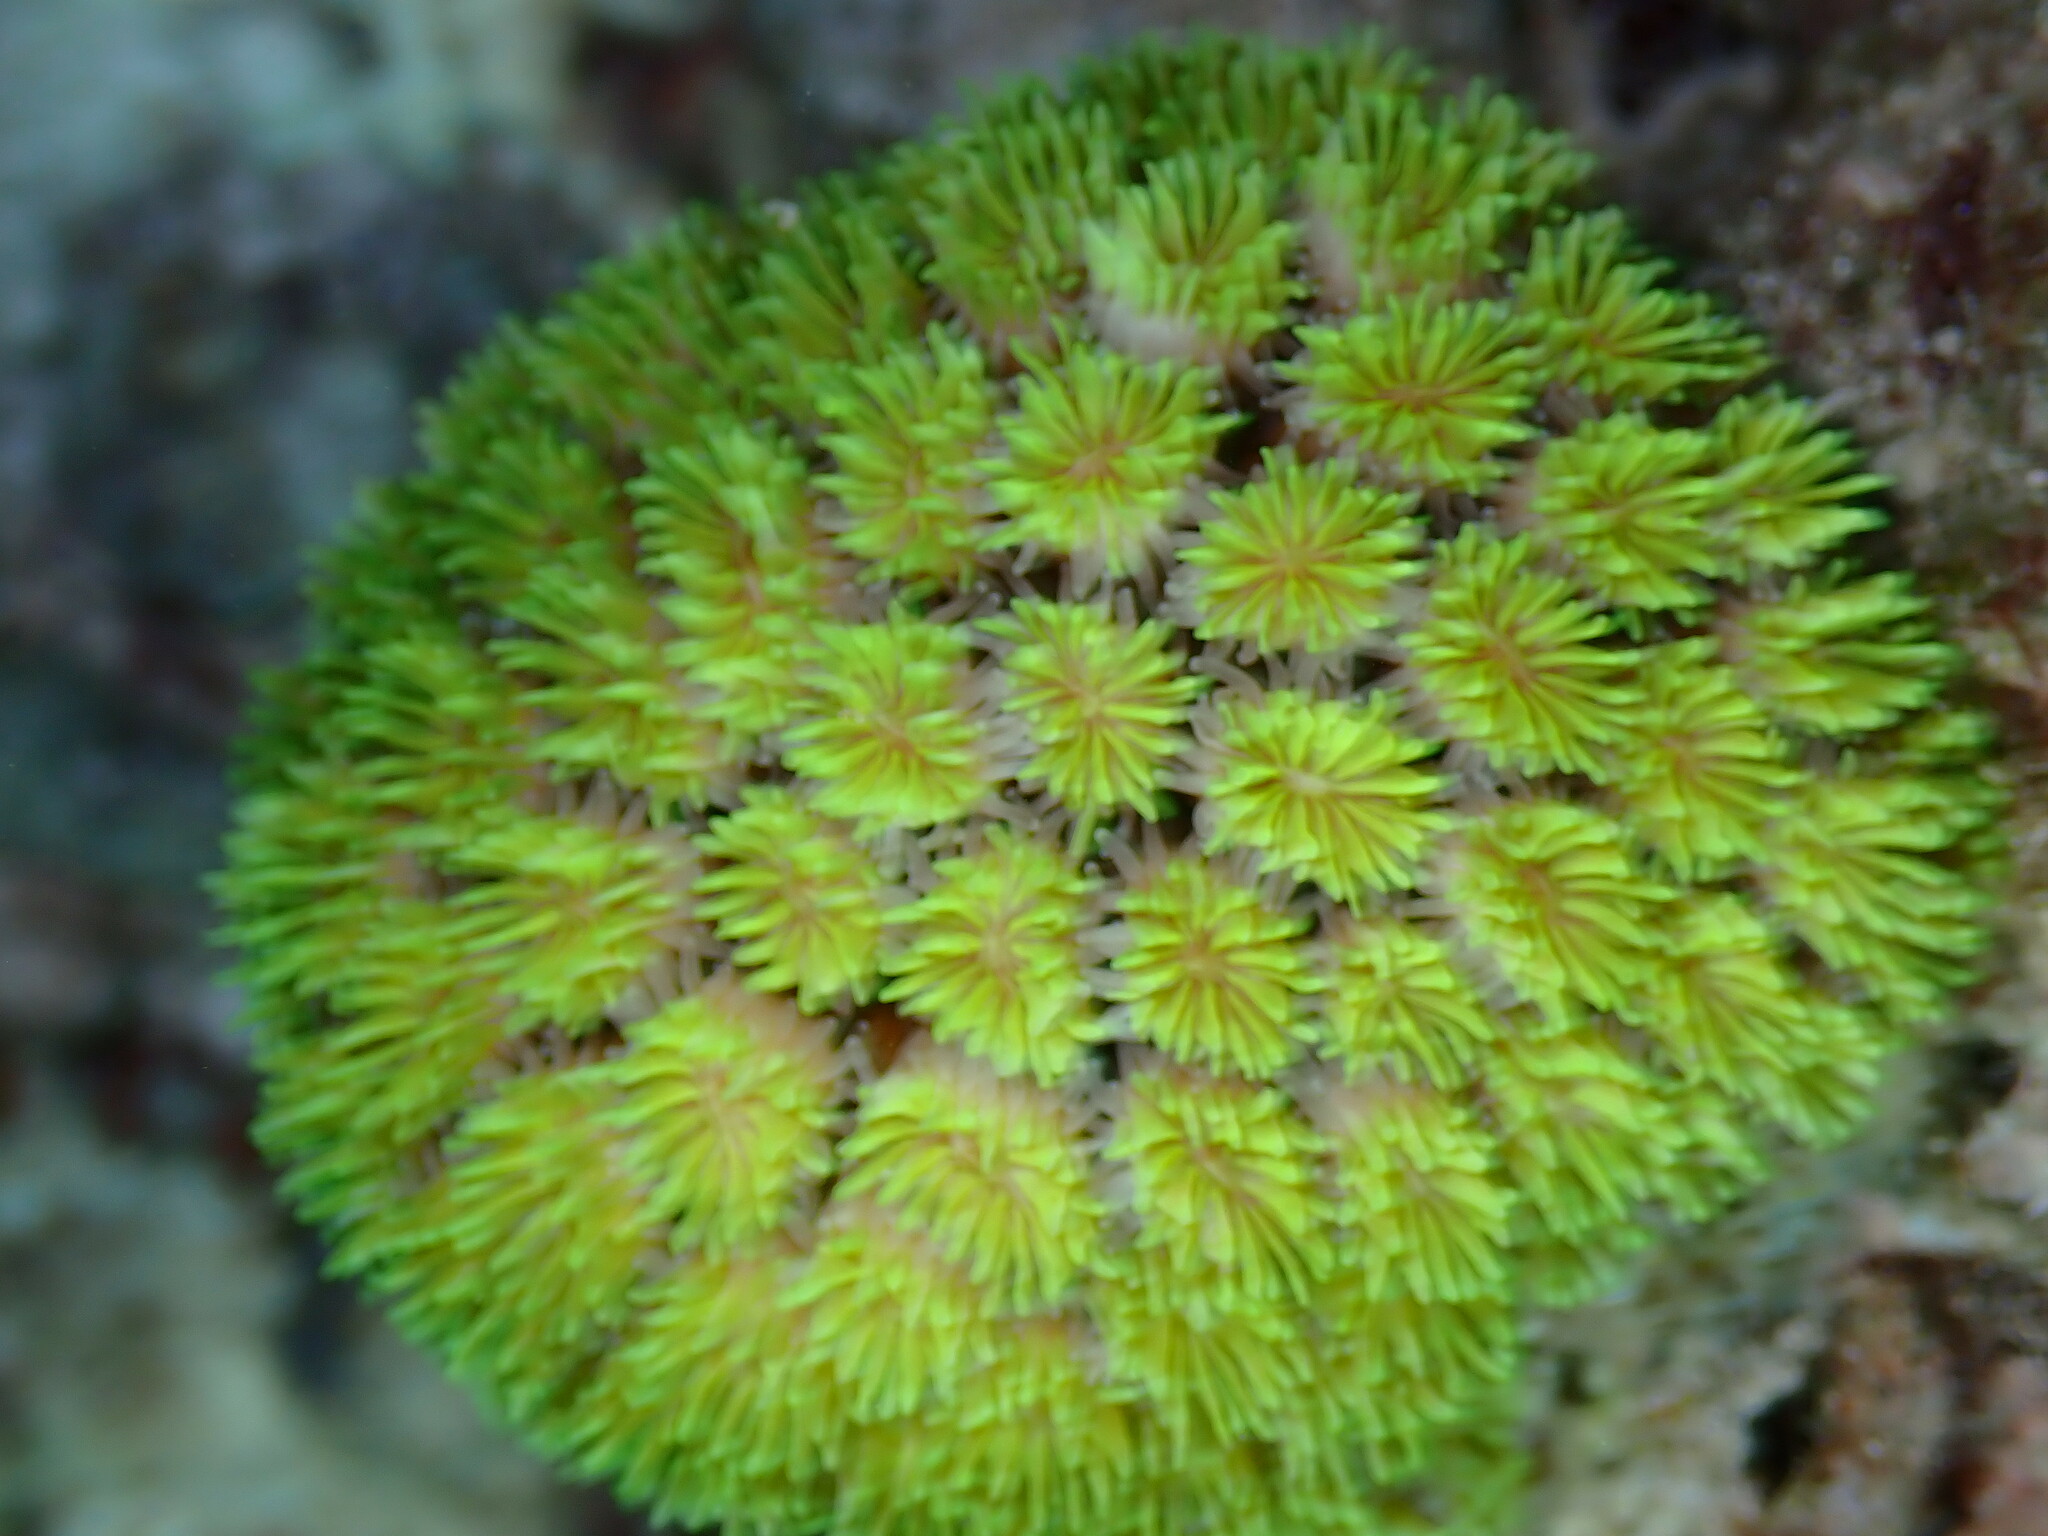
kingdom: Animalia
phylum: Cnidaria
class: Anthozoa
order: Scleractinia
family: Euphylliidae
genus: Galaxea
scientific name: Galaxea fascicularis
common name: Octopus coral
